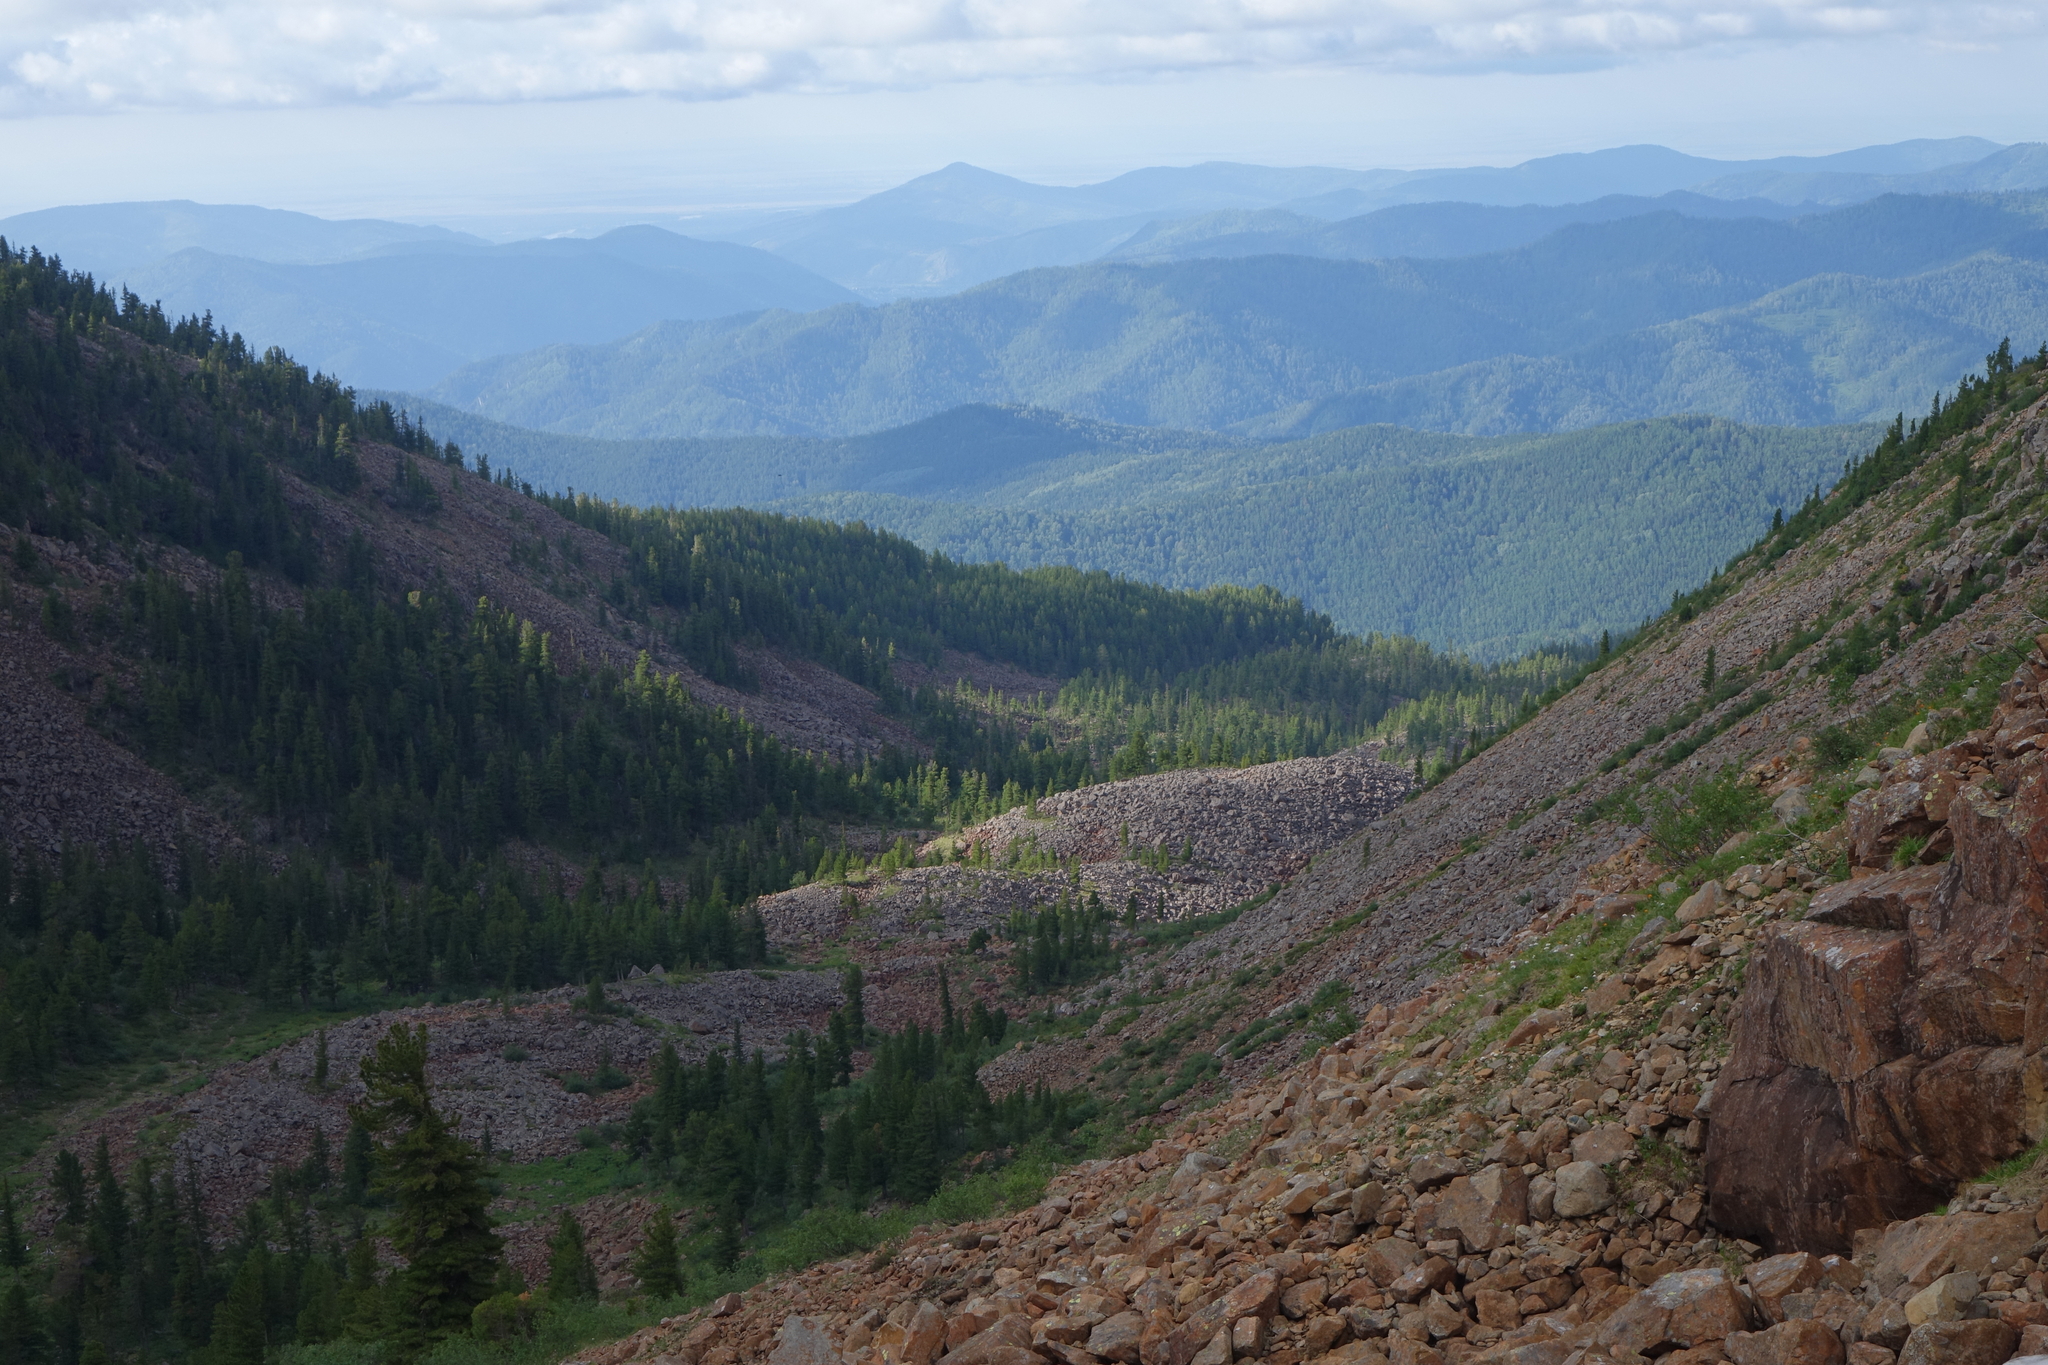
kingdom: Plantae
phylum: Tracheophyta
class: Pinopsida
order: Pinales
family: Pinaceae
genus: Pinus
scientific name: Pinus sibirica
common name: Siberian pine
